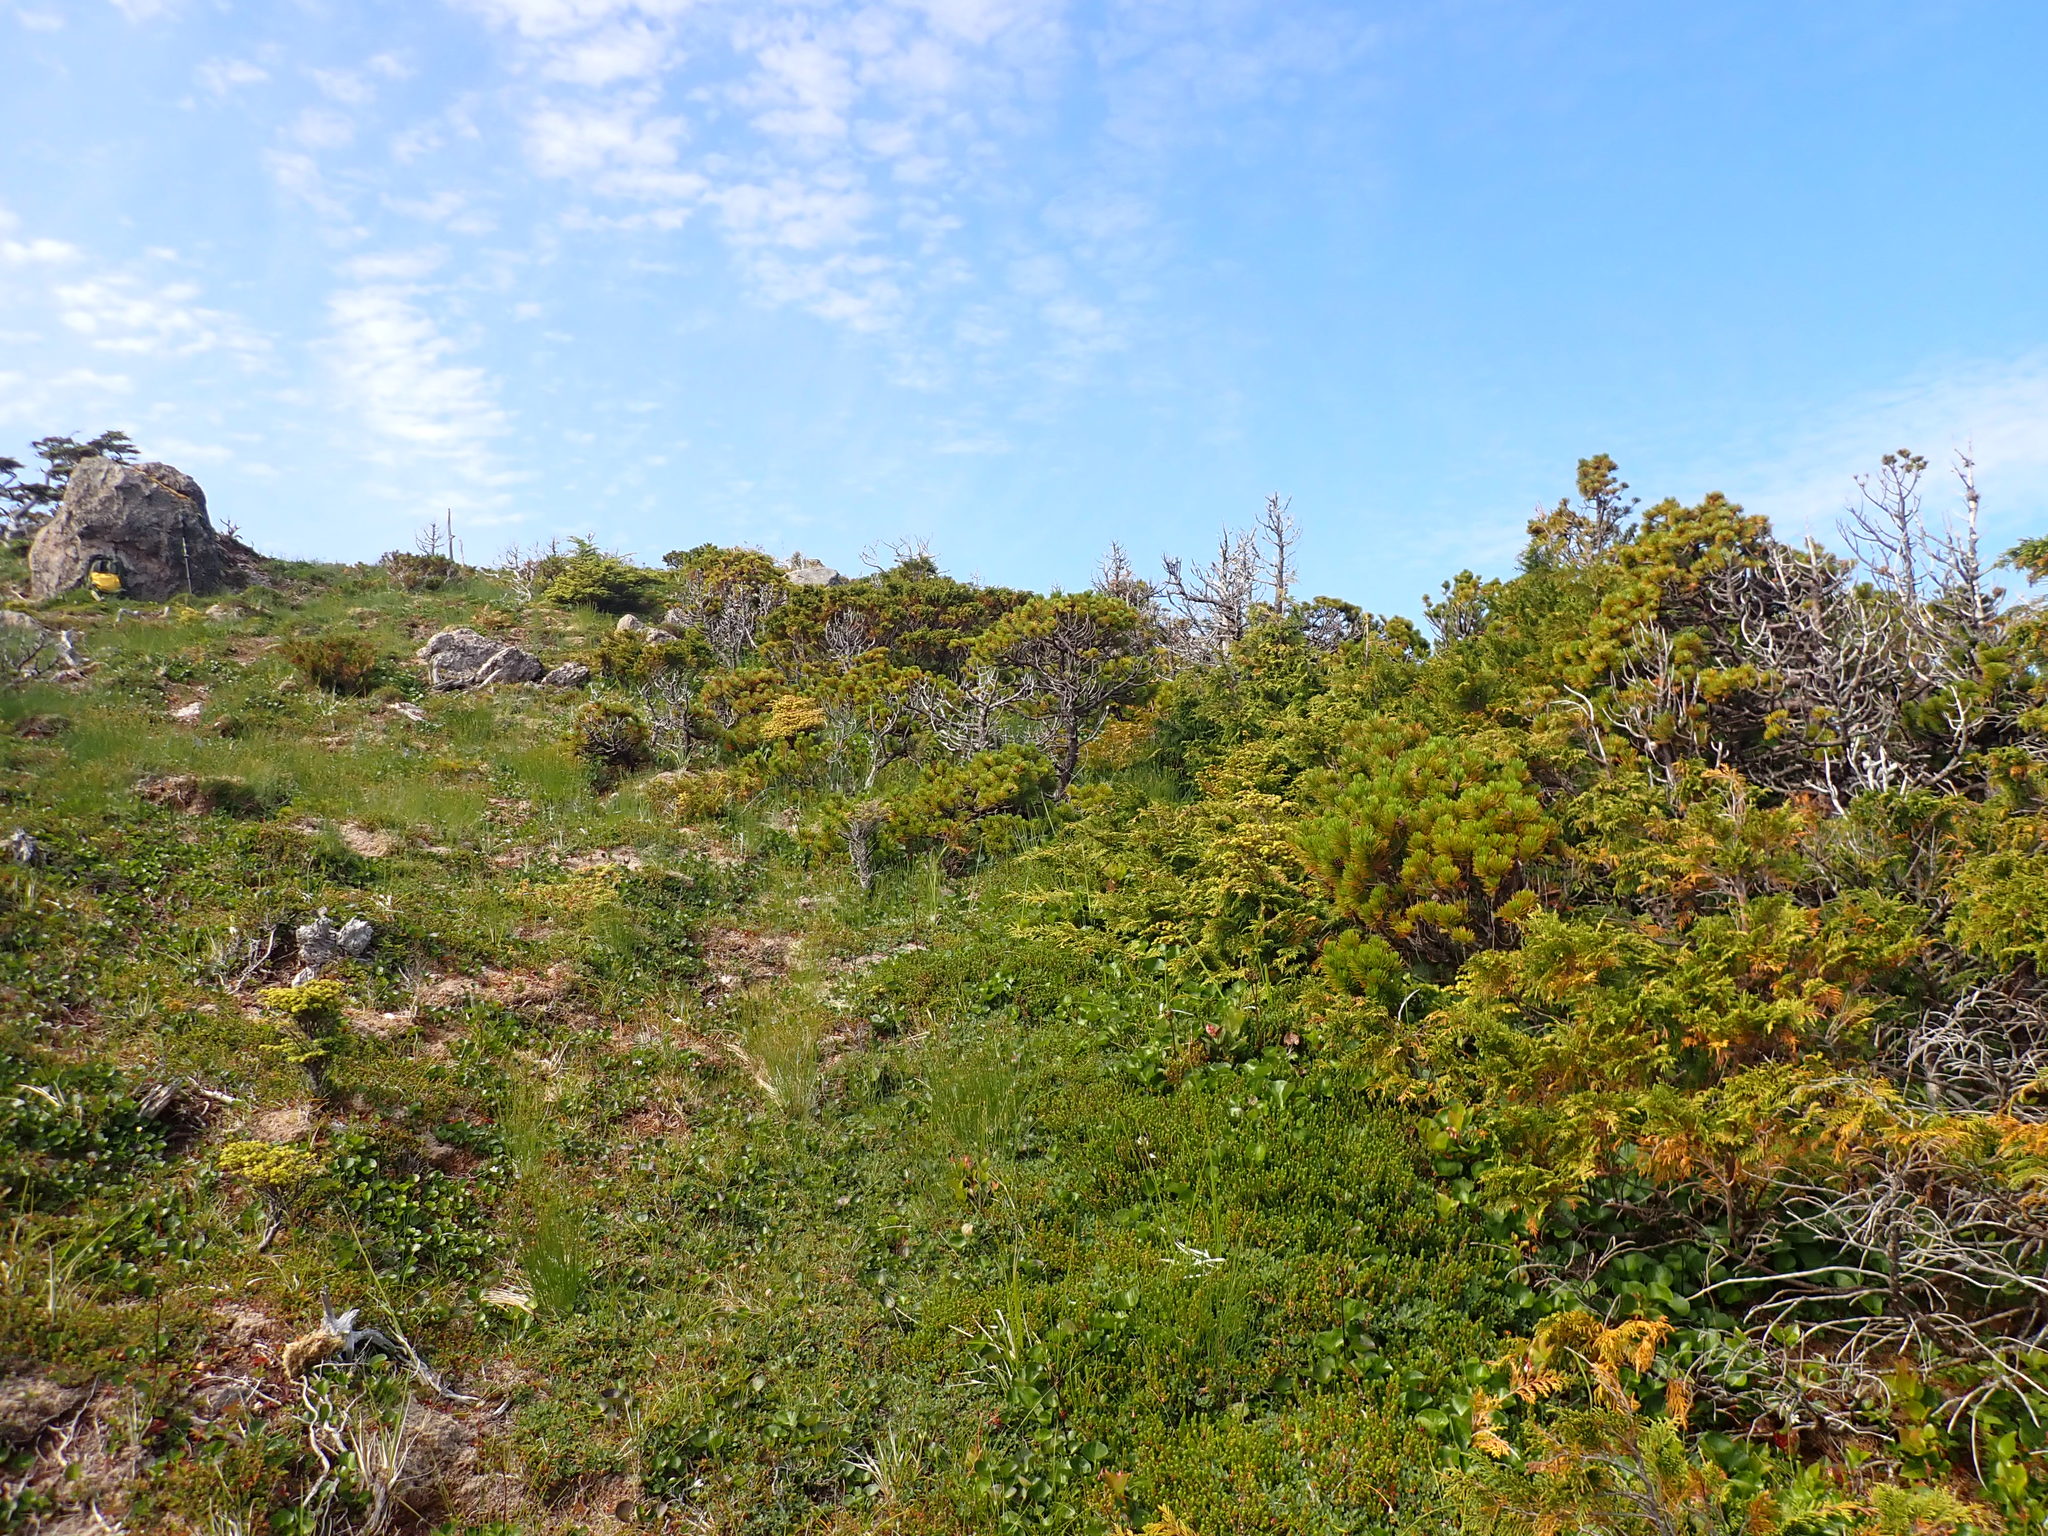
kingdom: Plantae
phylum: Tracheophyta
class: Pinopsida
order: Pinales
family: Pinaceae
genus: Pinus
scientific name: Pinus contorta
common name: Lodgepole pine
